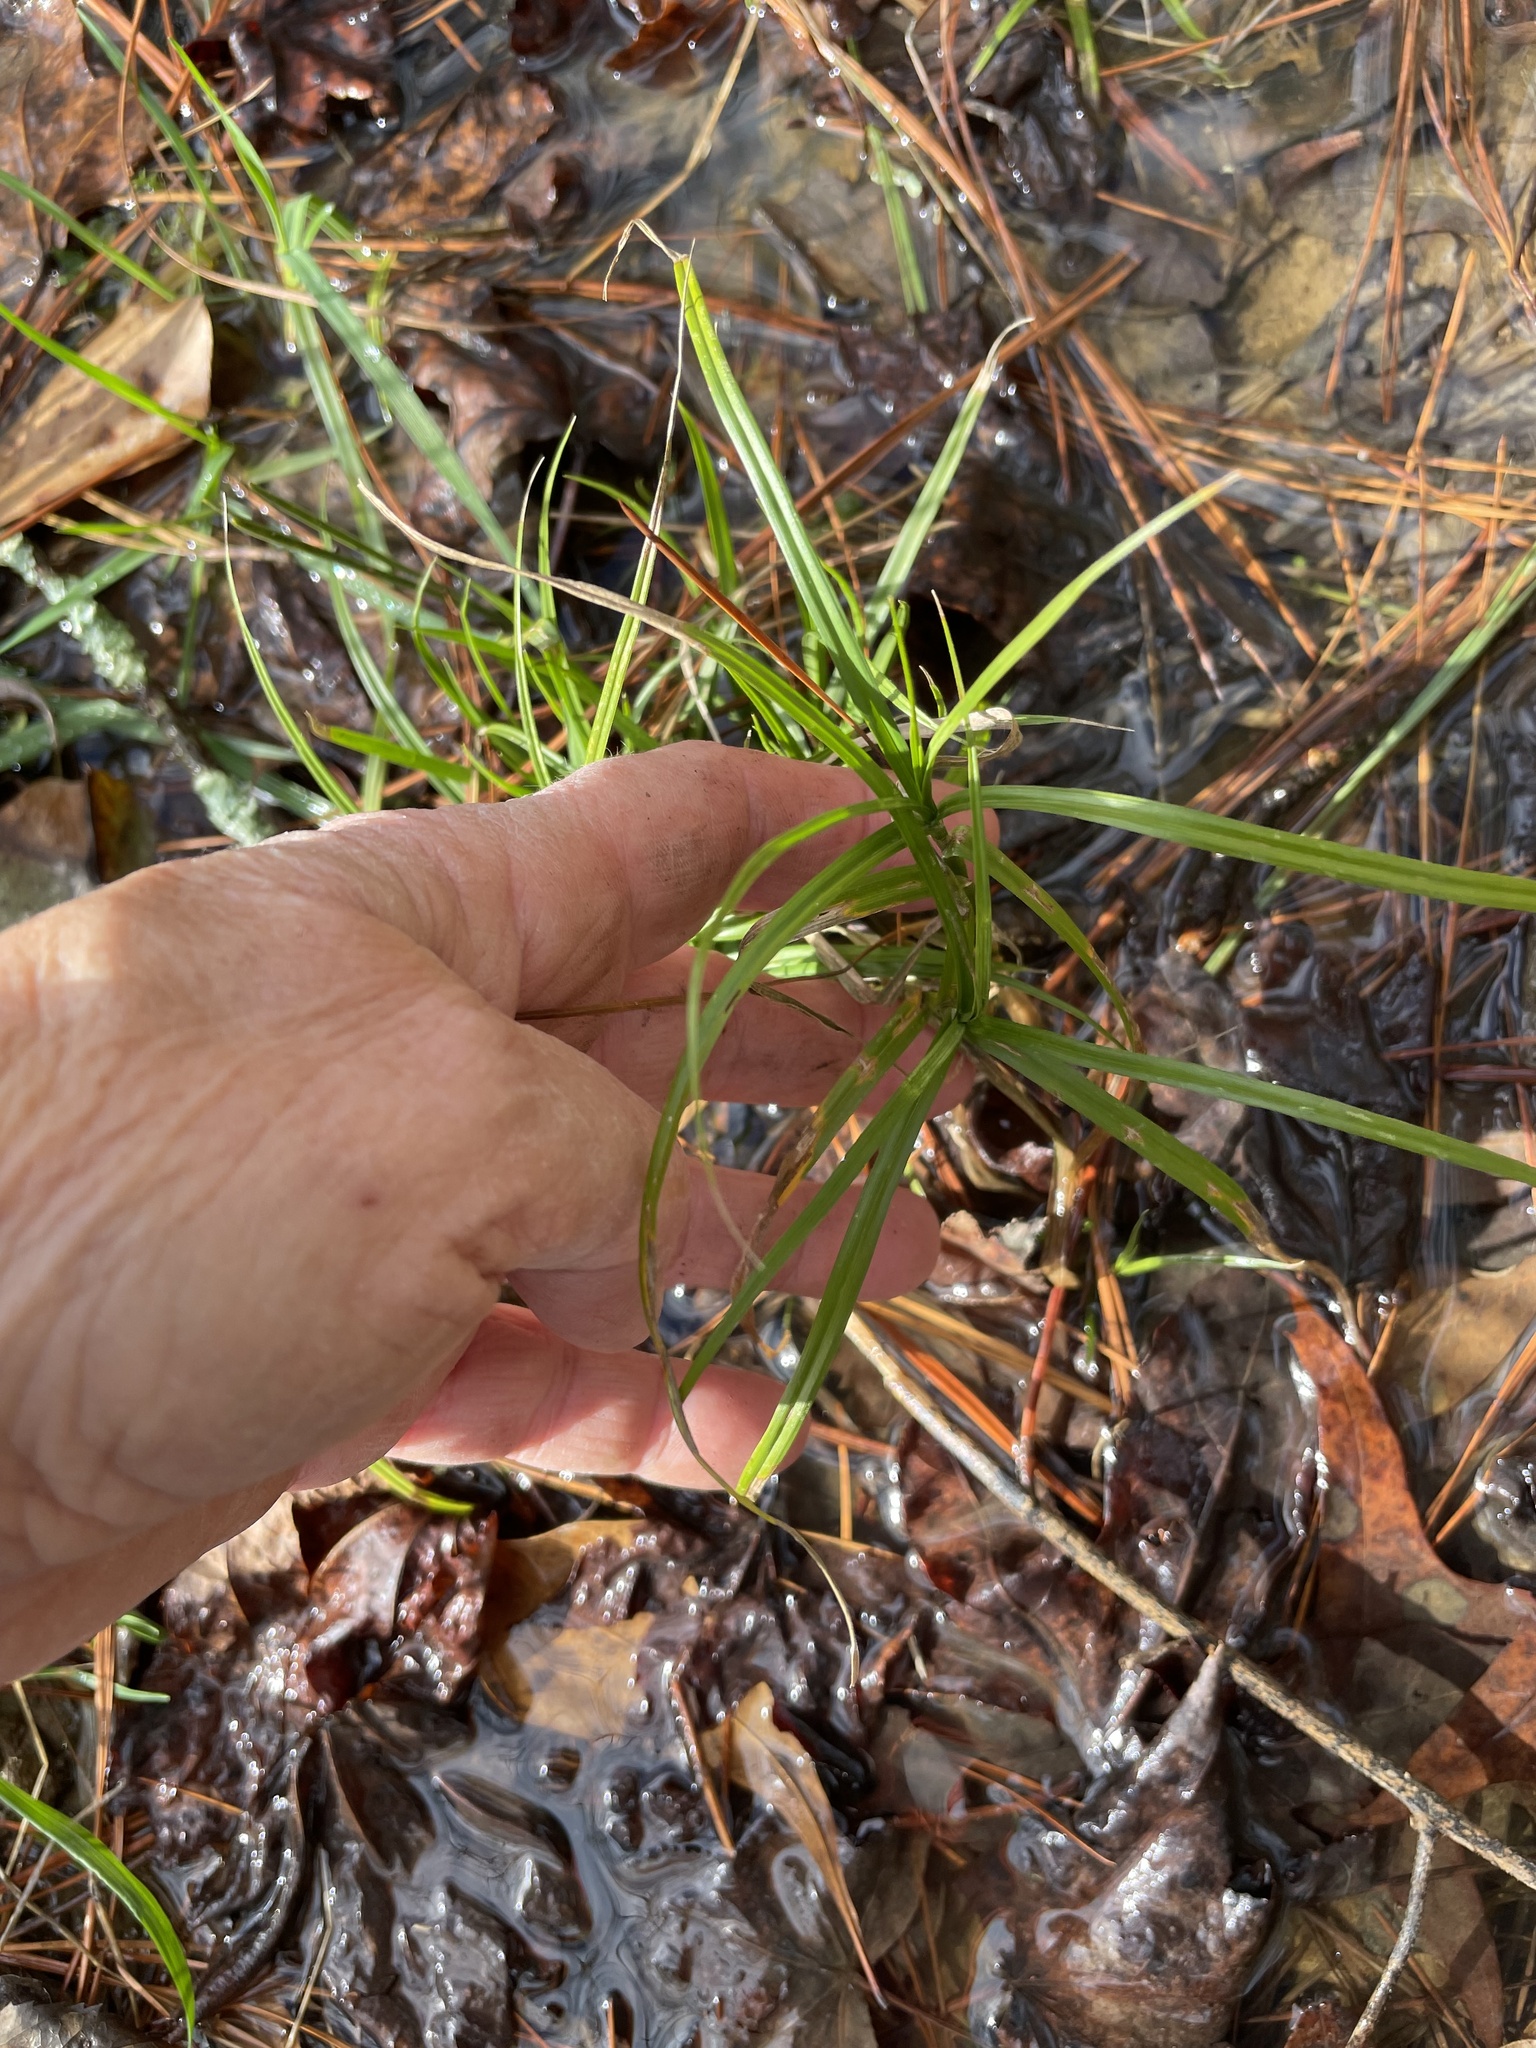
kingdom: Plantae
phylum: Tracheophyta
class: Liliopsida
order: Poales
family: Cyperaceae
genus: Dulichium
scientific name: Dulichium arundinaceum
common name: Three-way sedge
